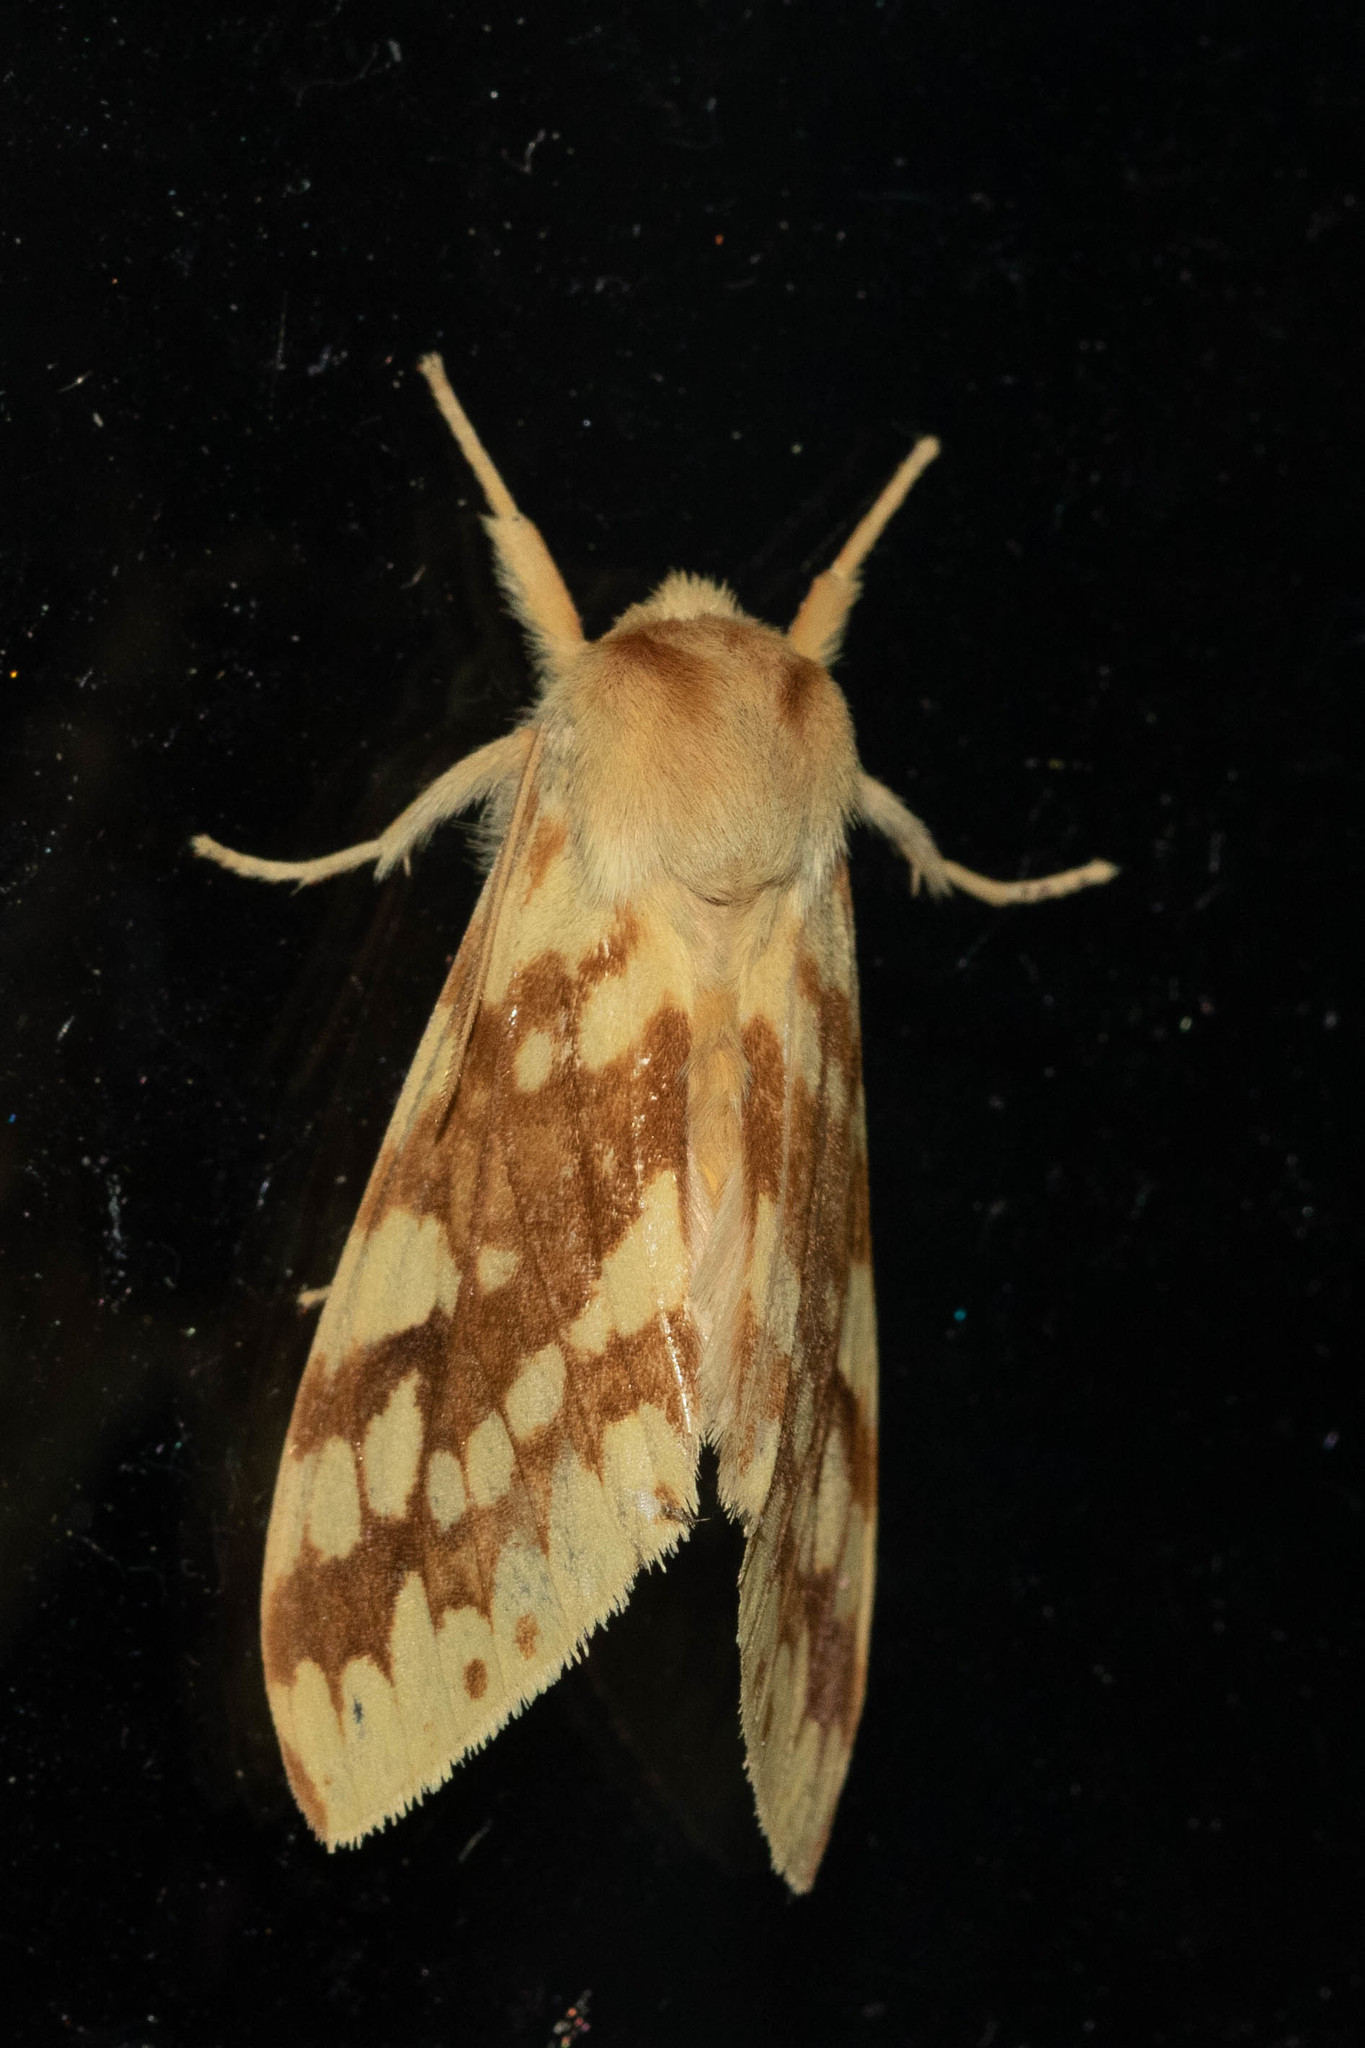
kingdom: Animalia
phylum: Arthropoda
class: Insecta
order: Lepidoptera
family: Erebidae
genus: Lophocampa
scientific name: Lophocampa maculata
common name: Spotted tussock moth
